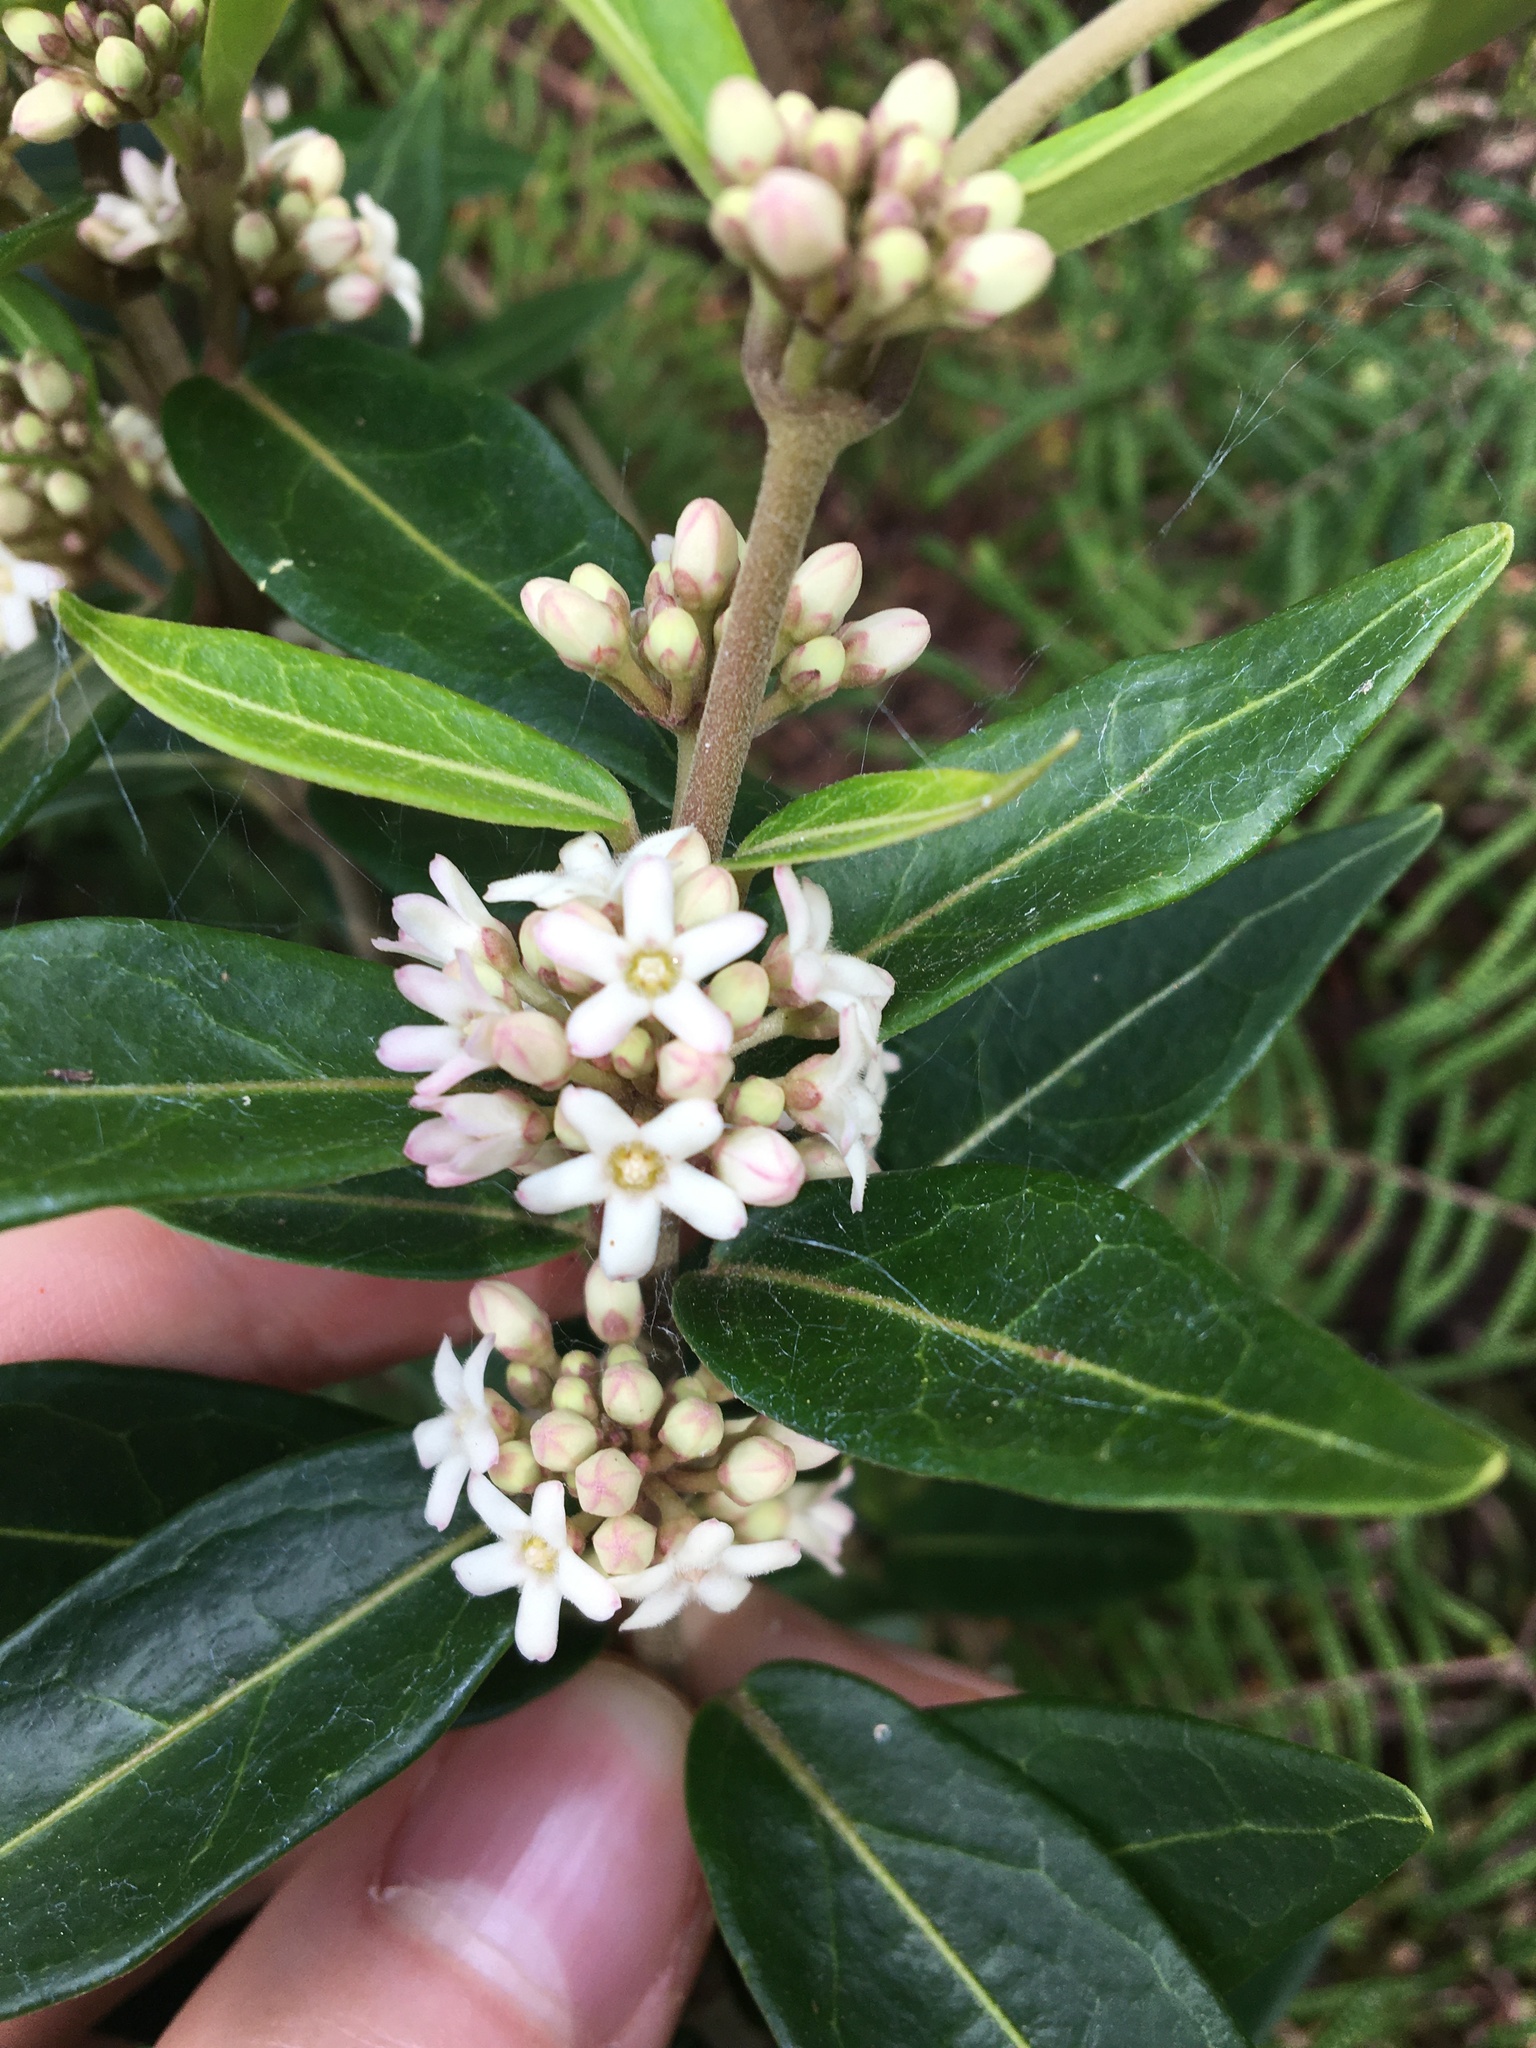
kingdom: Plantae
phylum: Tracheophyta
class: Magnoliopsida
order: Gentianales
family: Apocynaceae
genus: Leichhardtia
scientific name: Leichhardtia suaveolens
